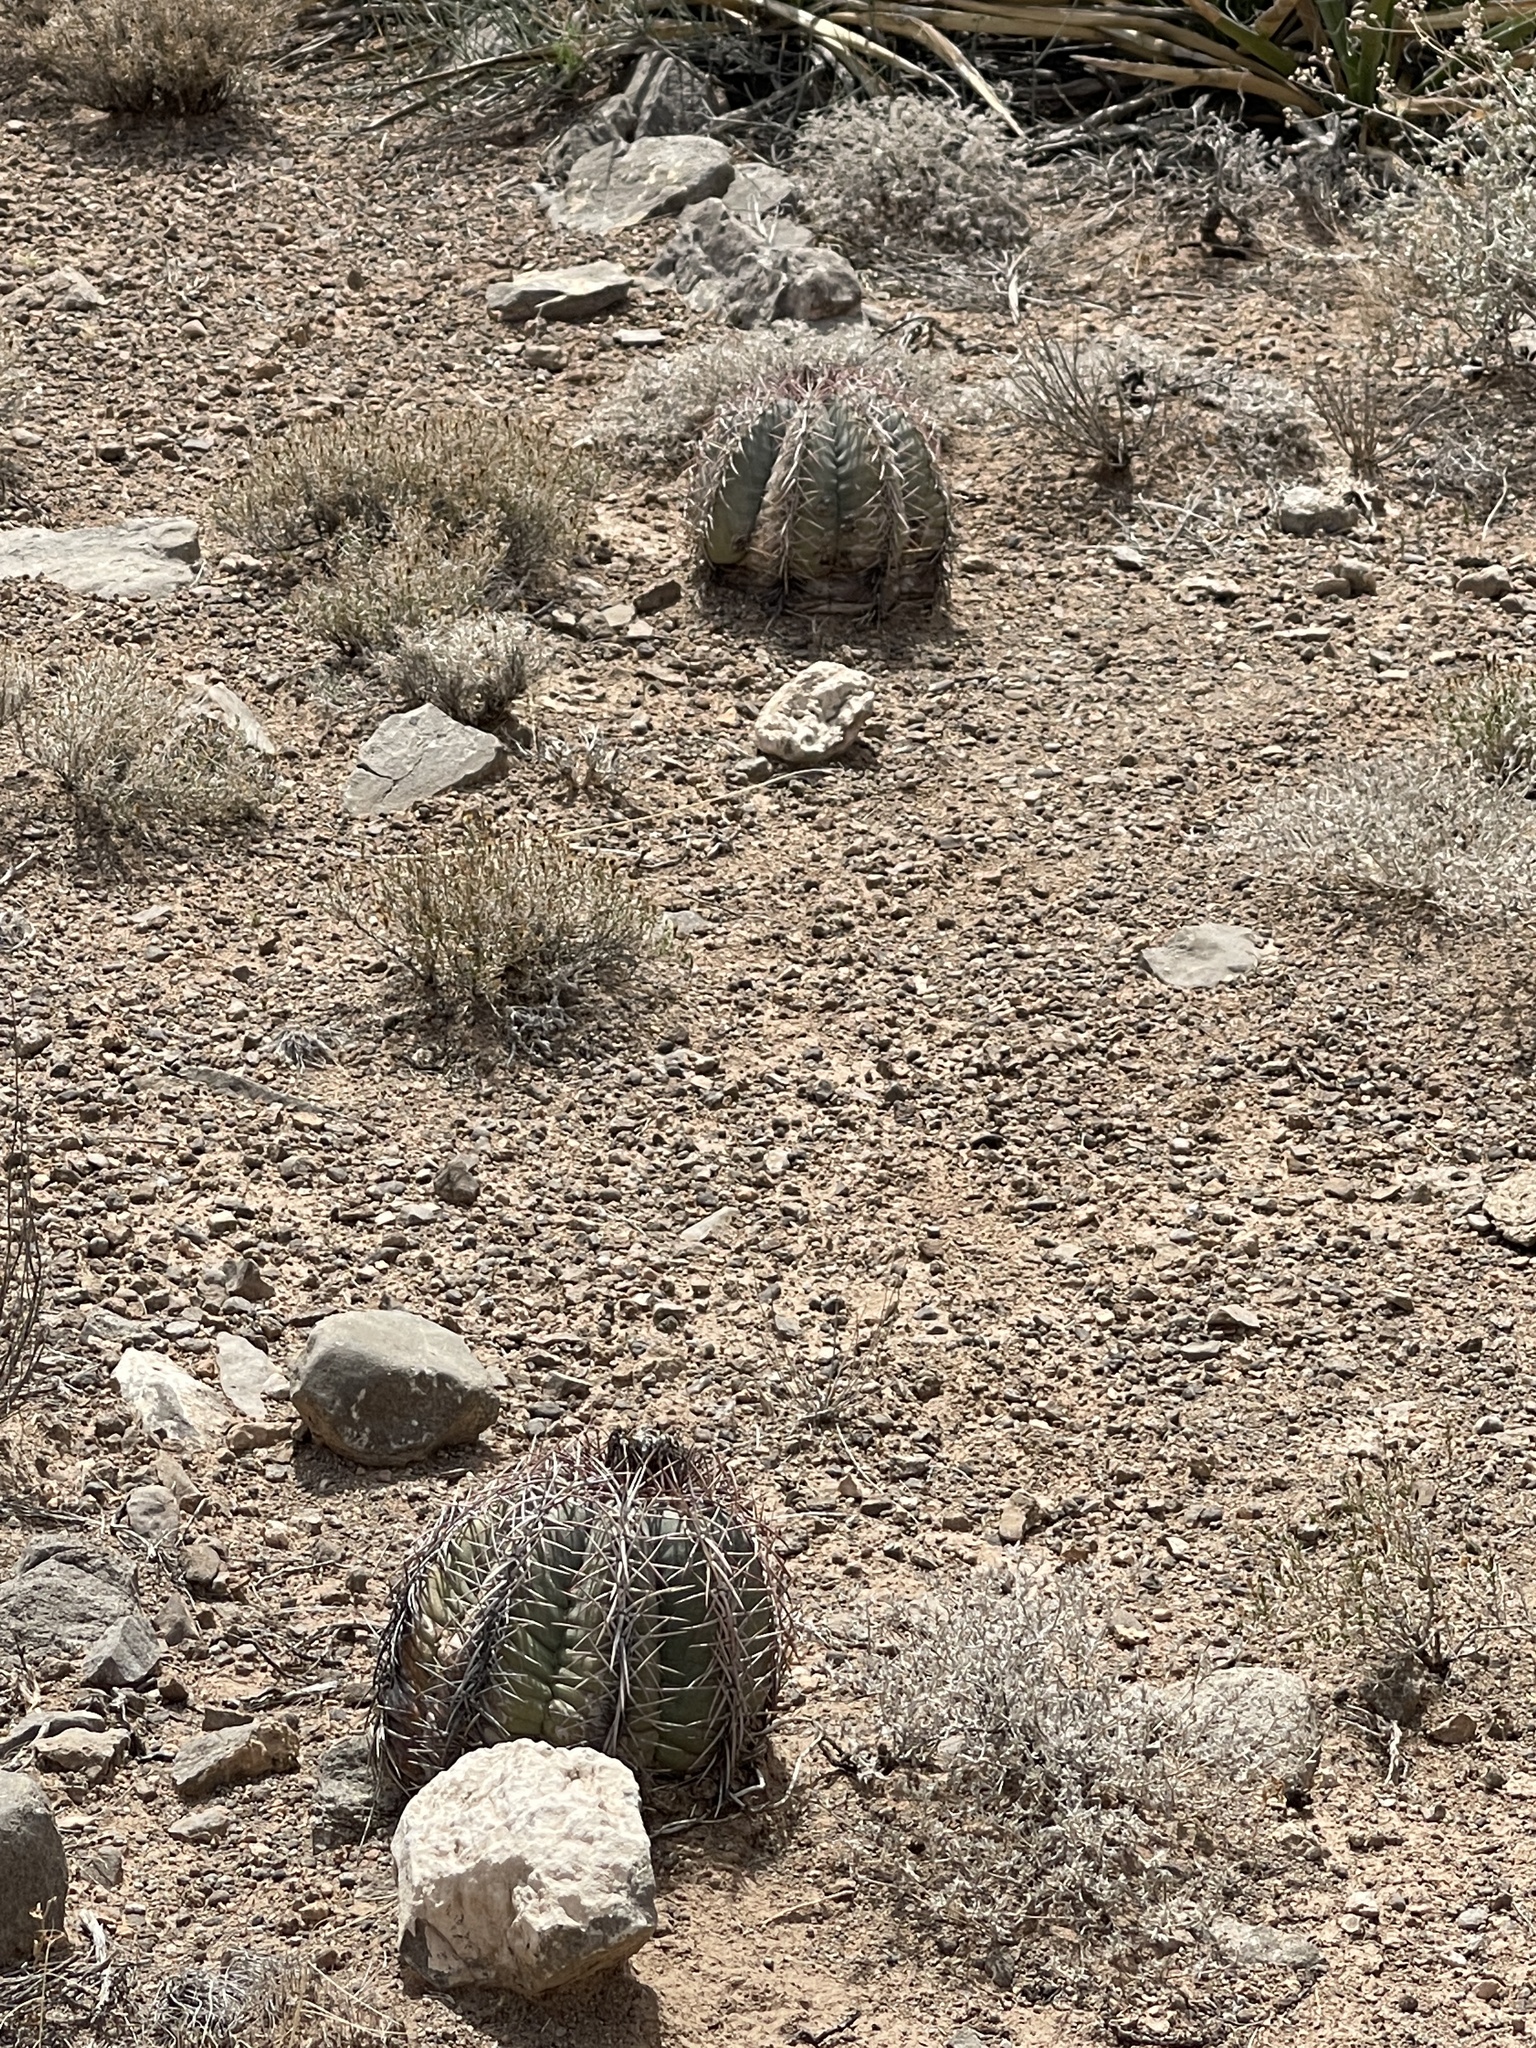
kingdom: Plantae
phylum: Tracheophyta
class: Magnoliopsida
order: Caryophyllales
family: Cactaceae
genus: Echinocactus
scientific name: Echinocactus horizonthalonius
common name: Devilshead
